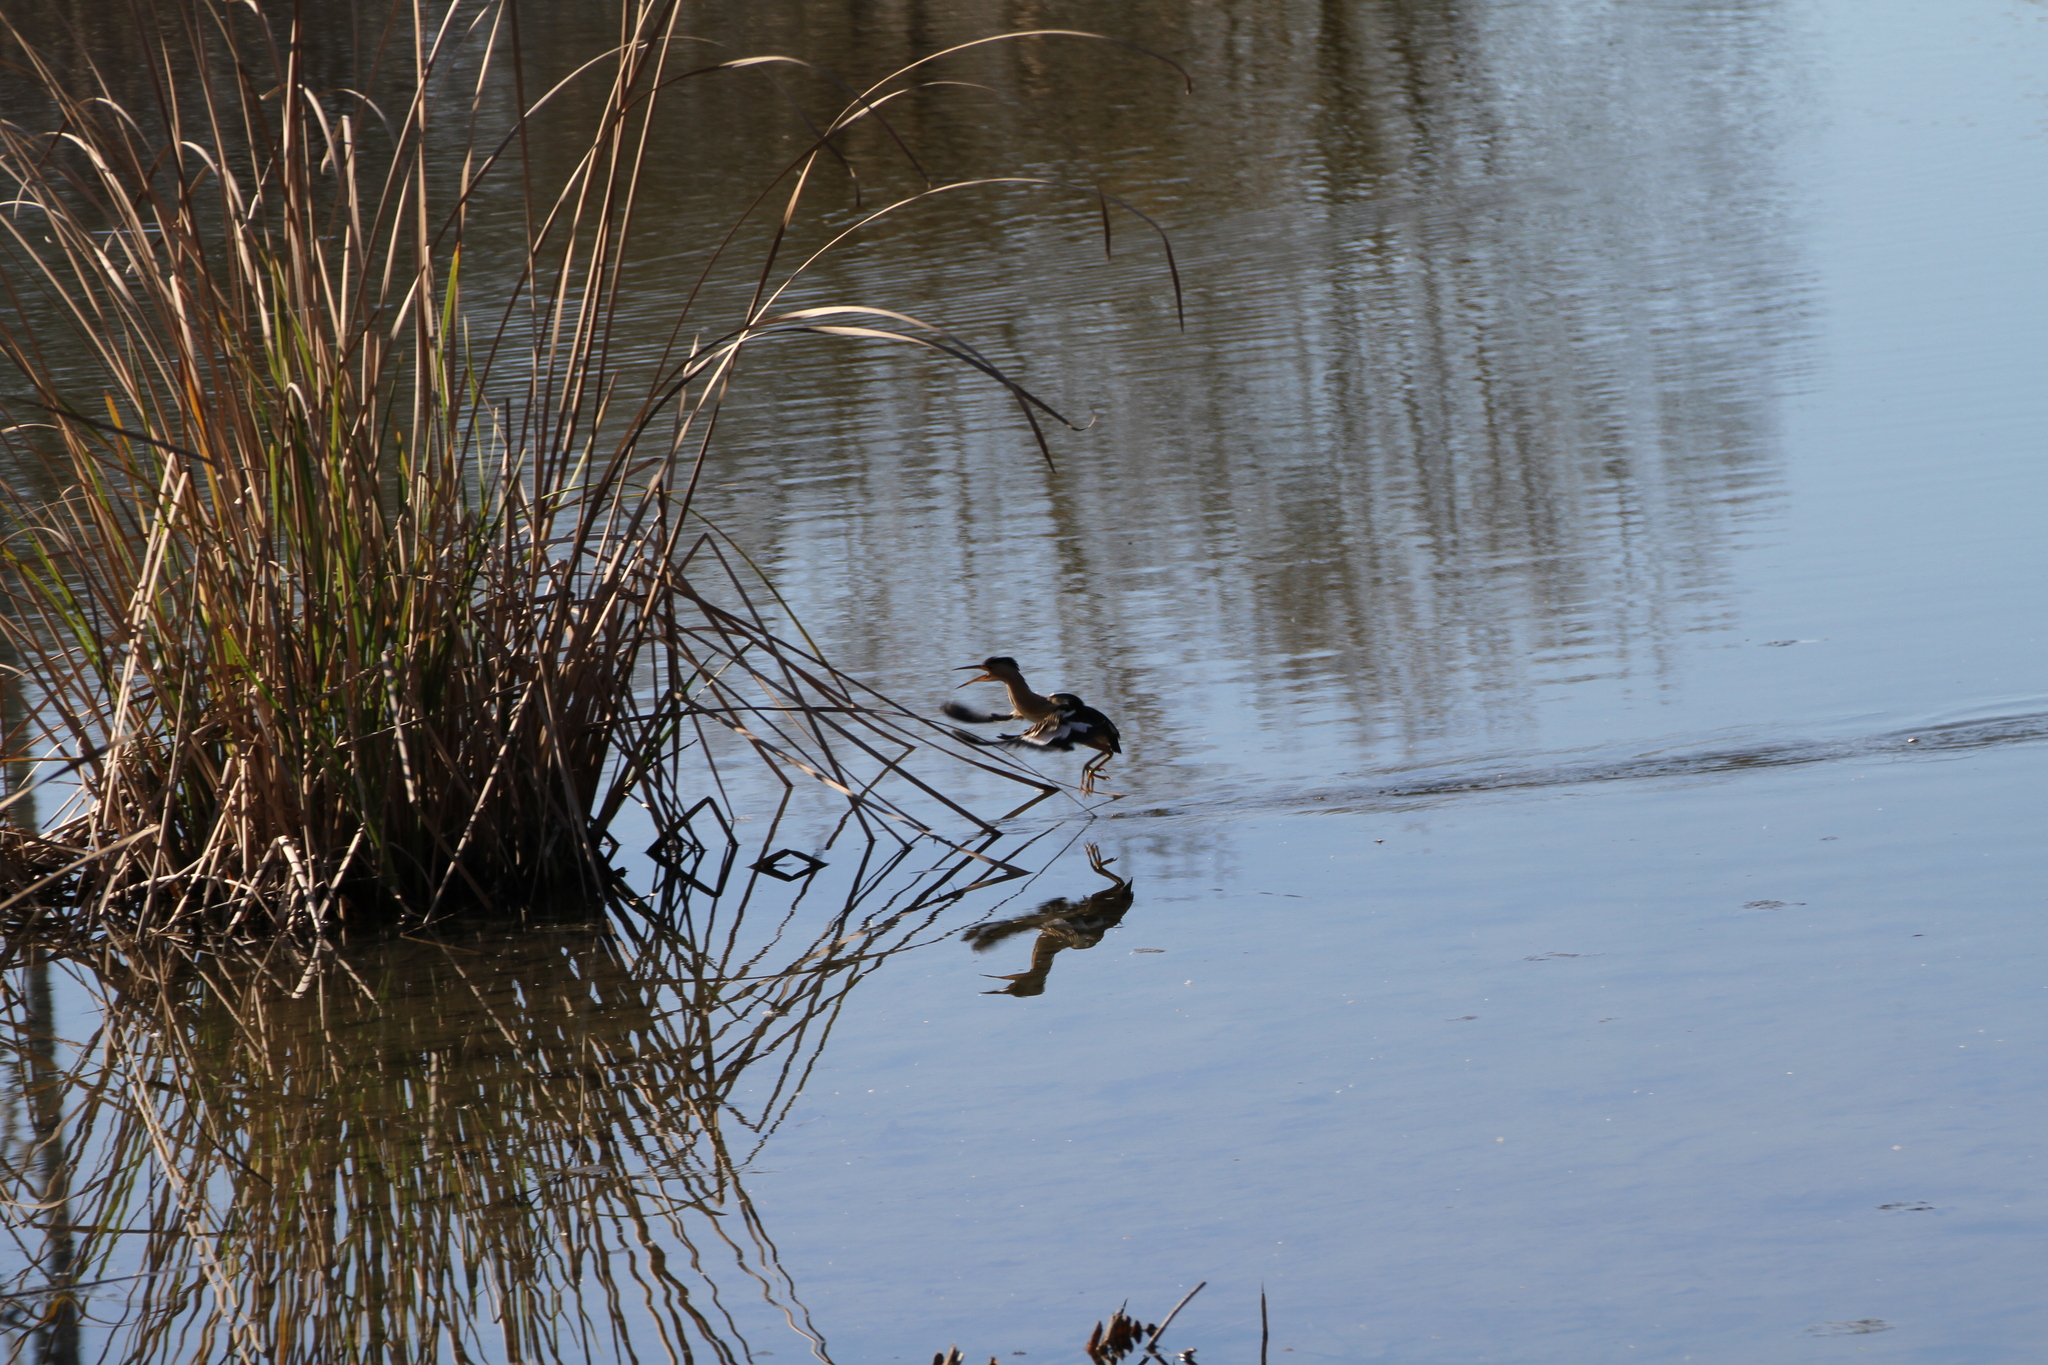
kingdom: Animalia
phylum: Chordata
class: Aves
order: Pelecaniformes
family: Ardeidae
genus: Ixobrychus
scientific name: Ixobrychus minutus
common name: Little bittern
